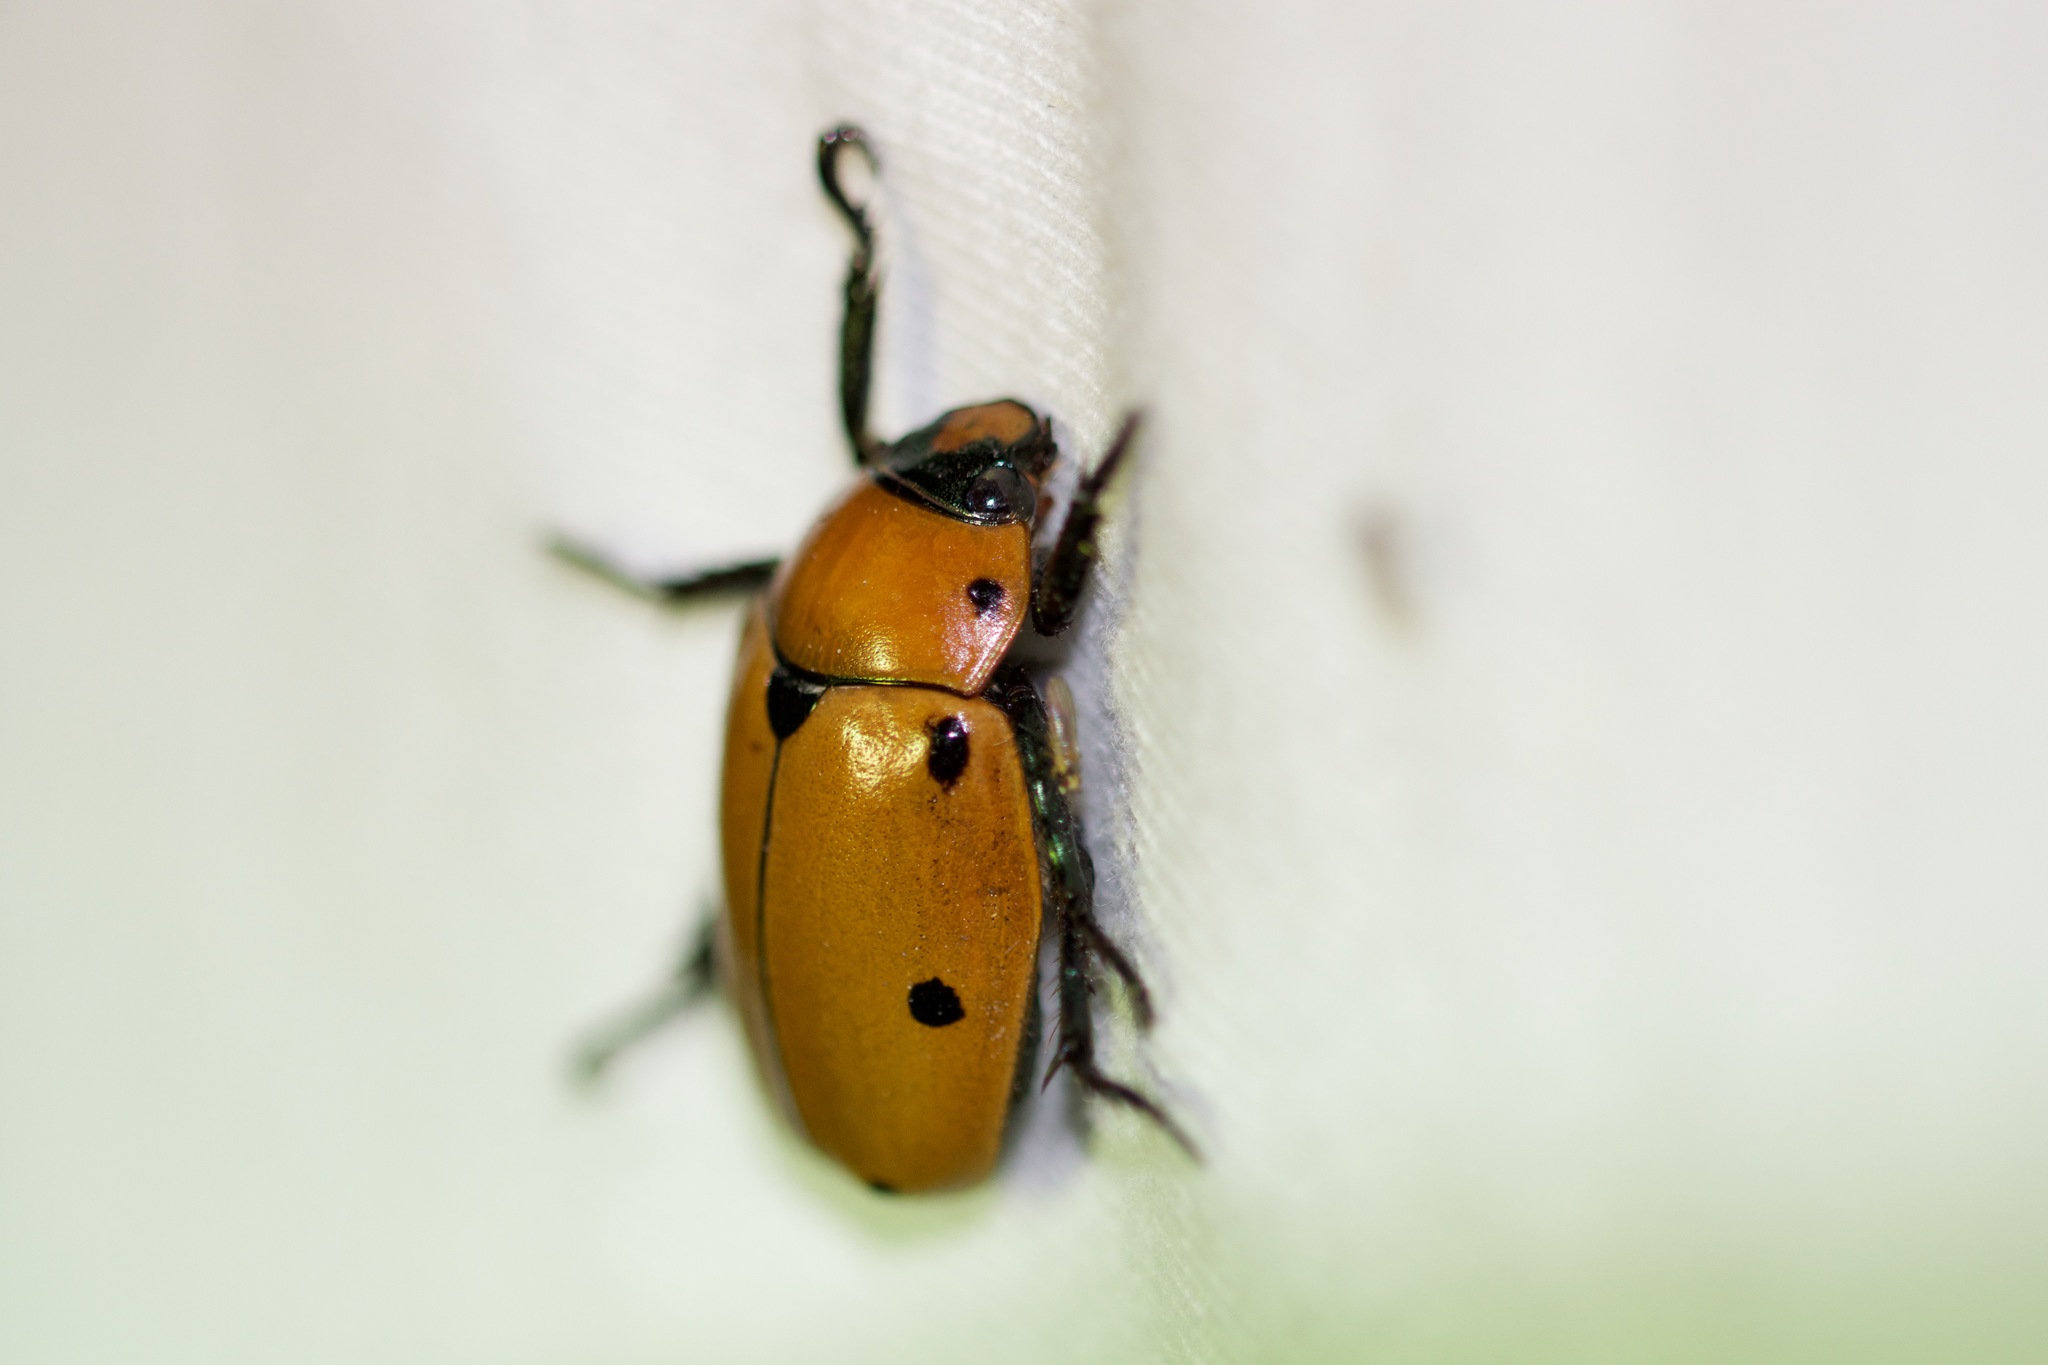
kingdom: Animalia
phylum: Arthropoda
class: Insecta
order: Coleoptera
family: Scarabaeidae
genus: Pelidnota
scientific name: Pelidnota punctata
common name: Grapevine beetle
